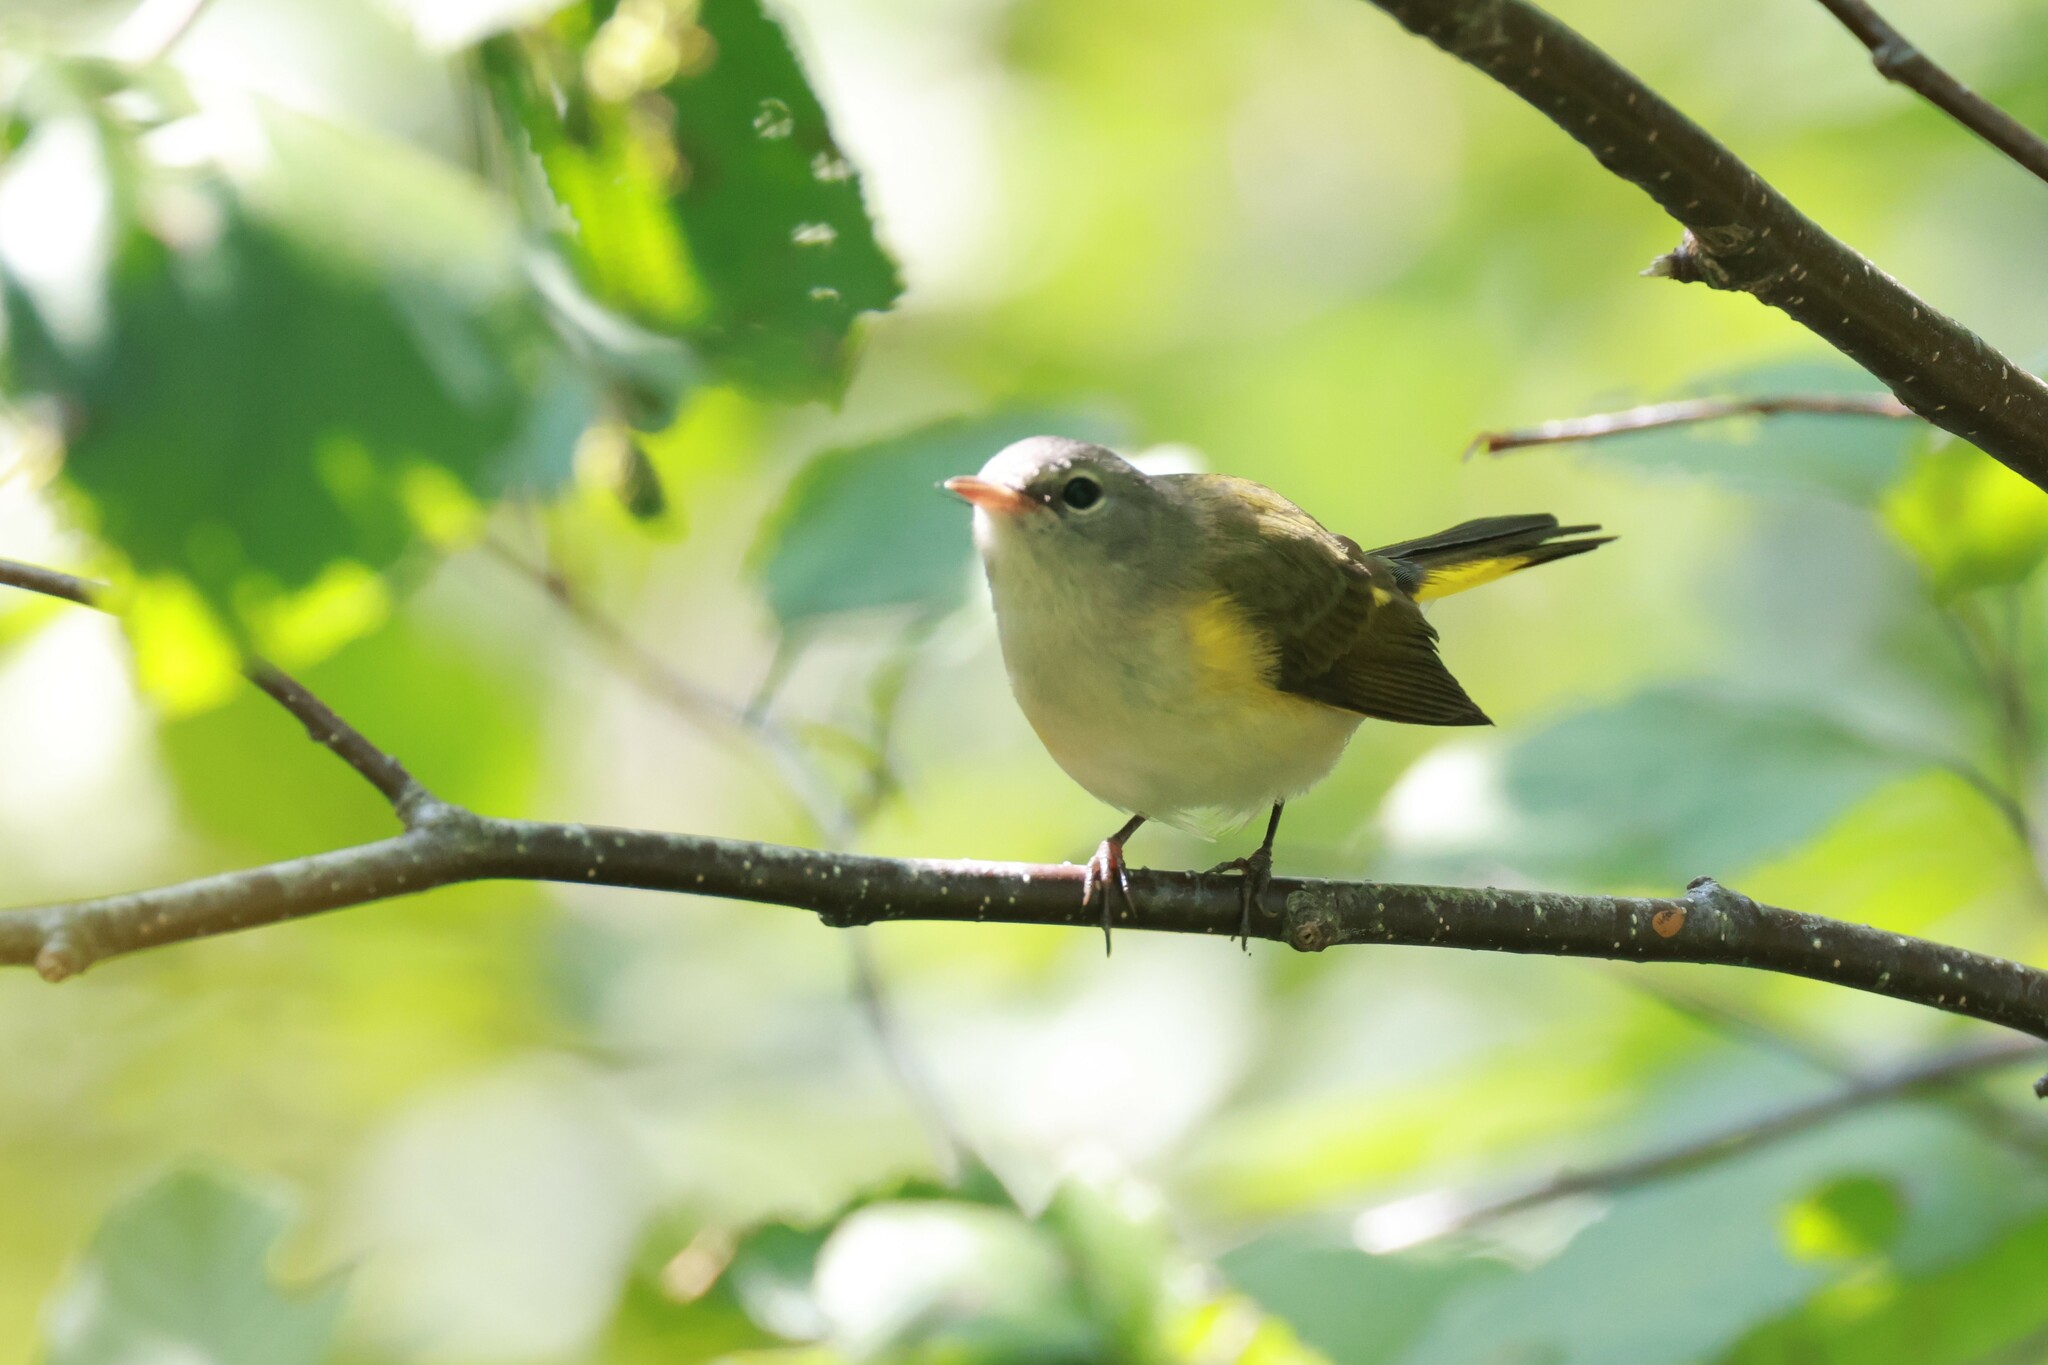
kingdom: Animalia
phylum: Chordata
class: Aves
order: Passeriformes
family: Parulidae
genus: Setophaga
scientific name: Setophaga ruticilla
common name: American redstart
